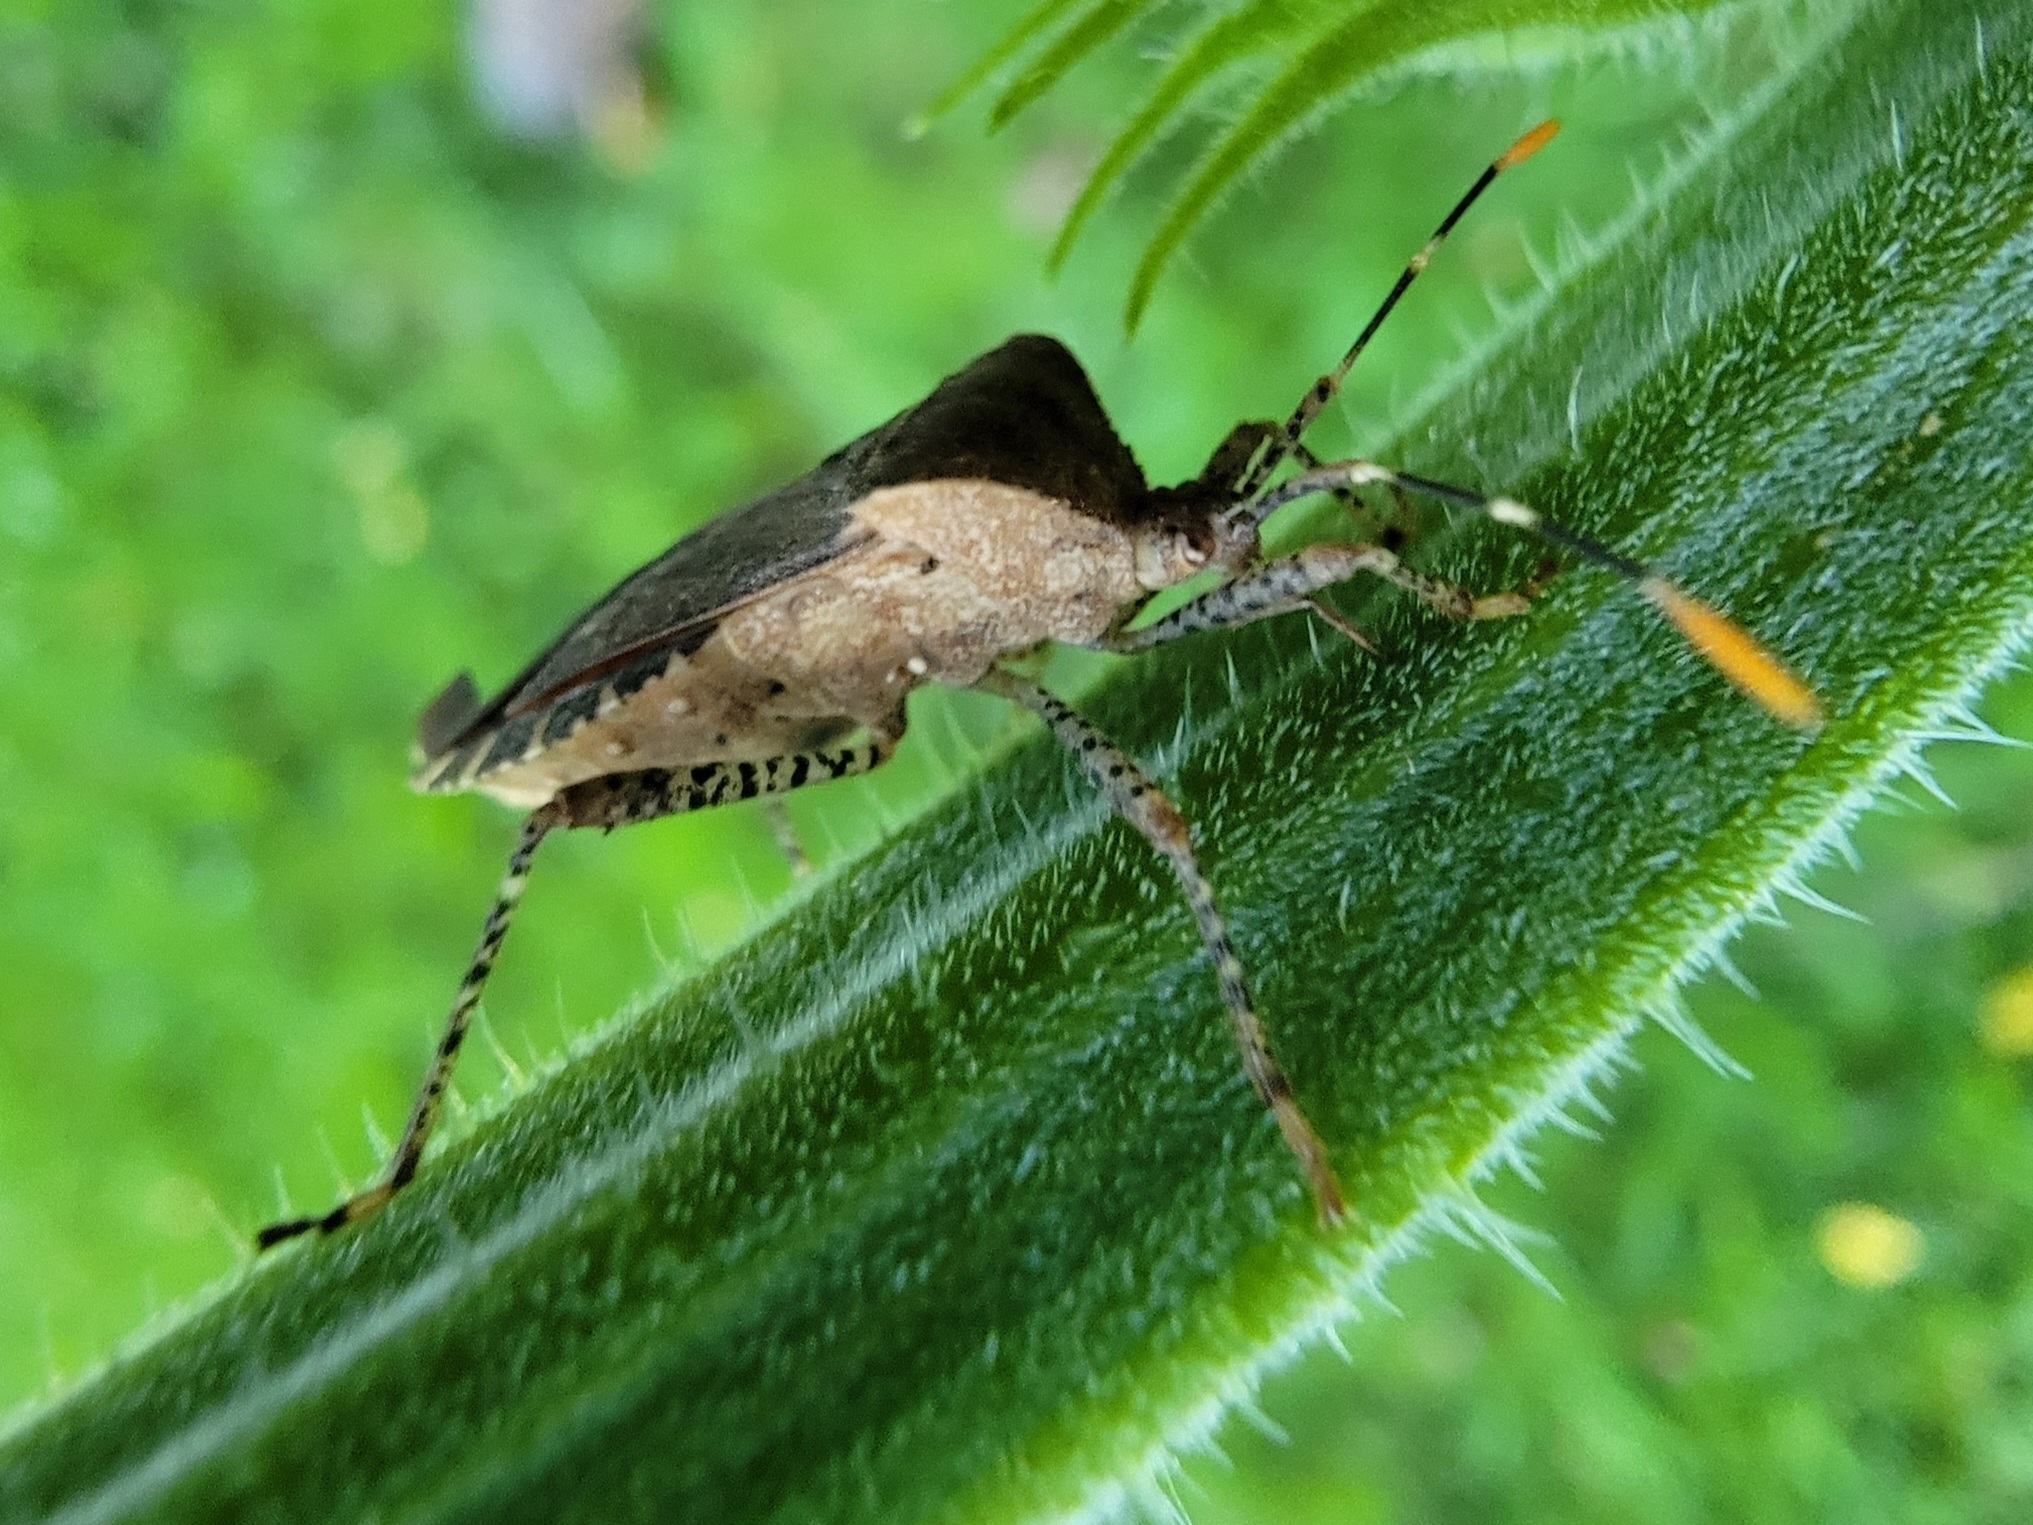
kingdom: Animalia
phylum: Arthropoda
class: Insecta
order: Hemiptera
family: Coreidae
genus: Anasa
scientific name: Anasa armigera
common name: Horned squash bug
